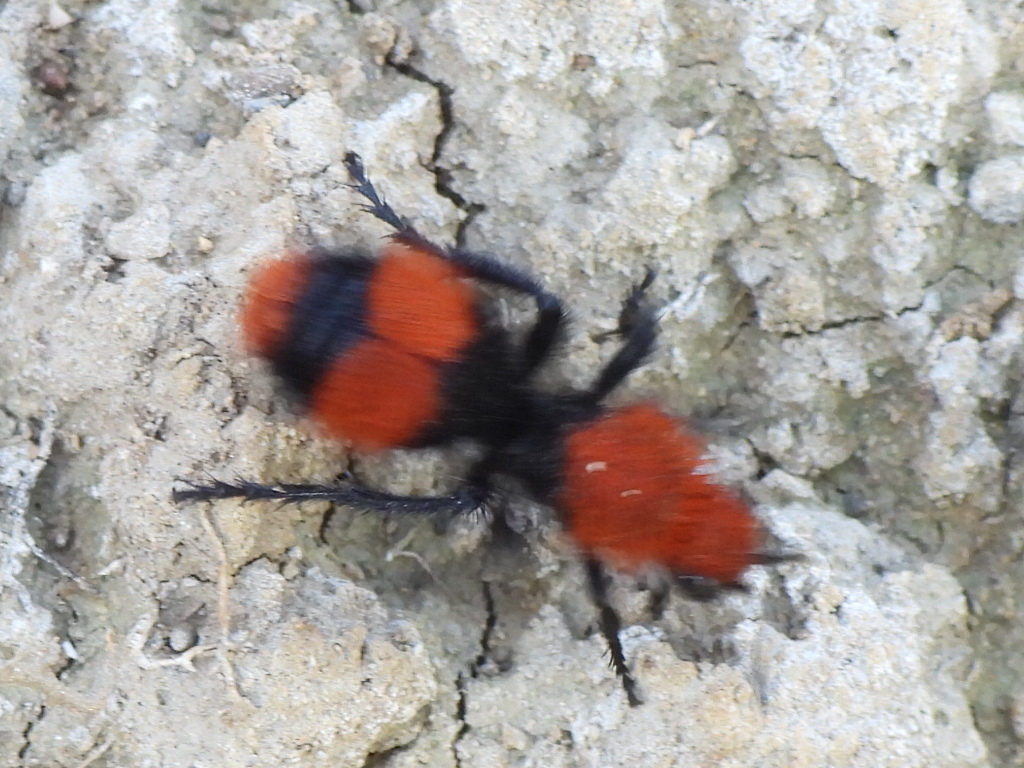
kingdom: Animalia
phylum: Arthropoda
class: Insecta
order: Hymenoptera
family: Mutillidae
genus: Dasymutilla
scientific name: Dasymutilla occidentalis
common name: Common eastern velvet ant
